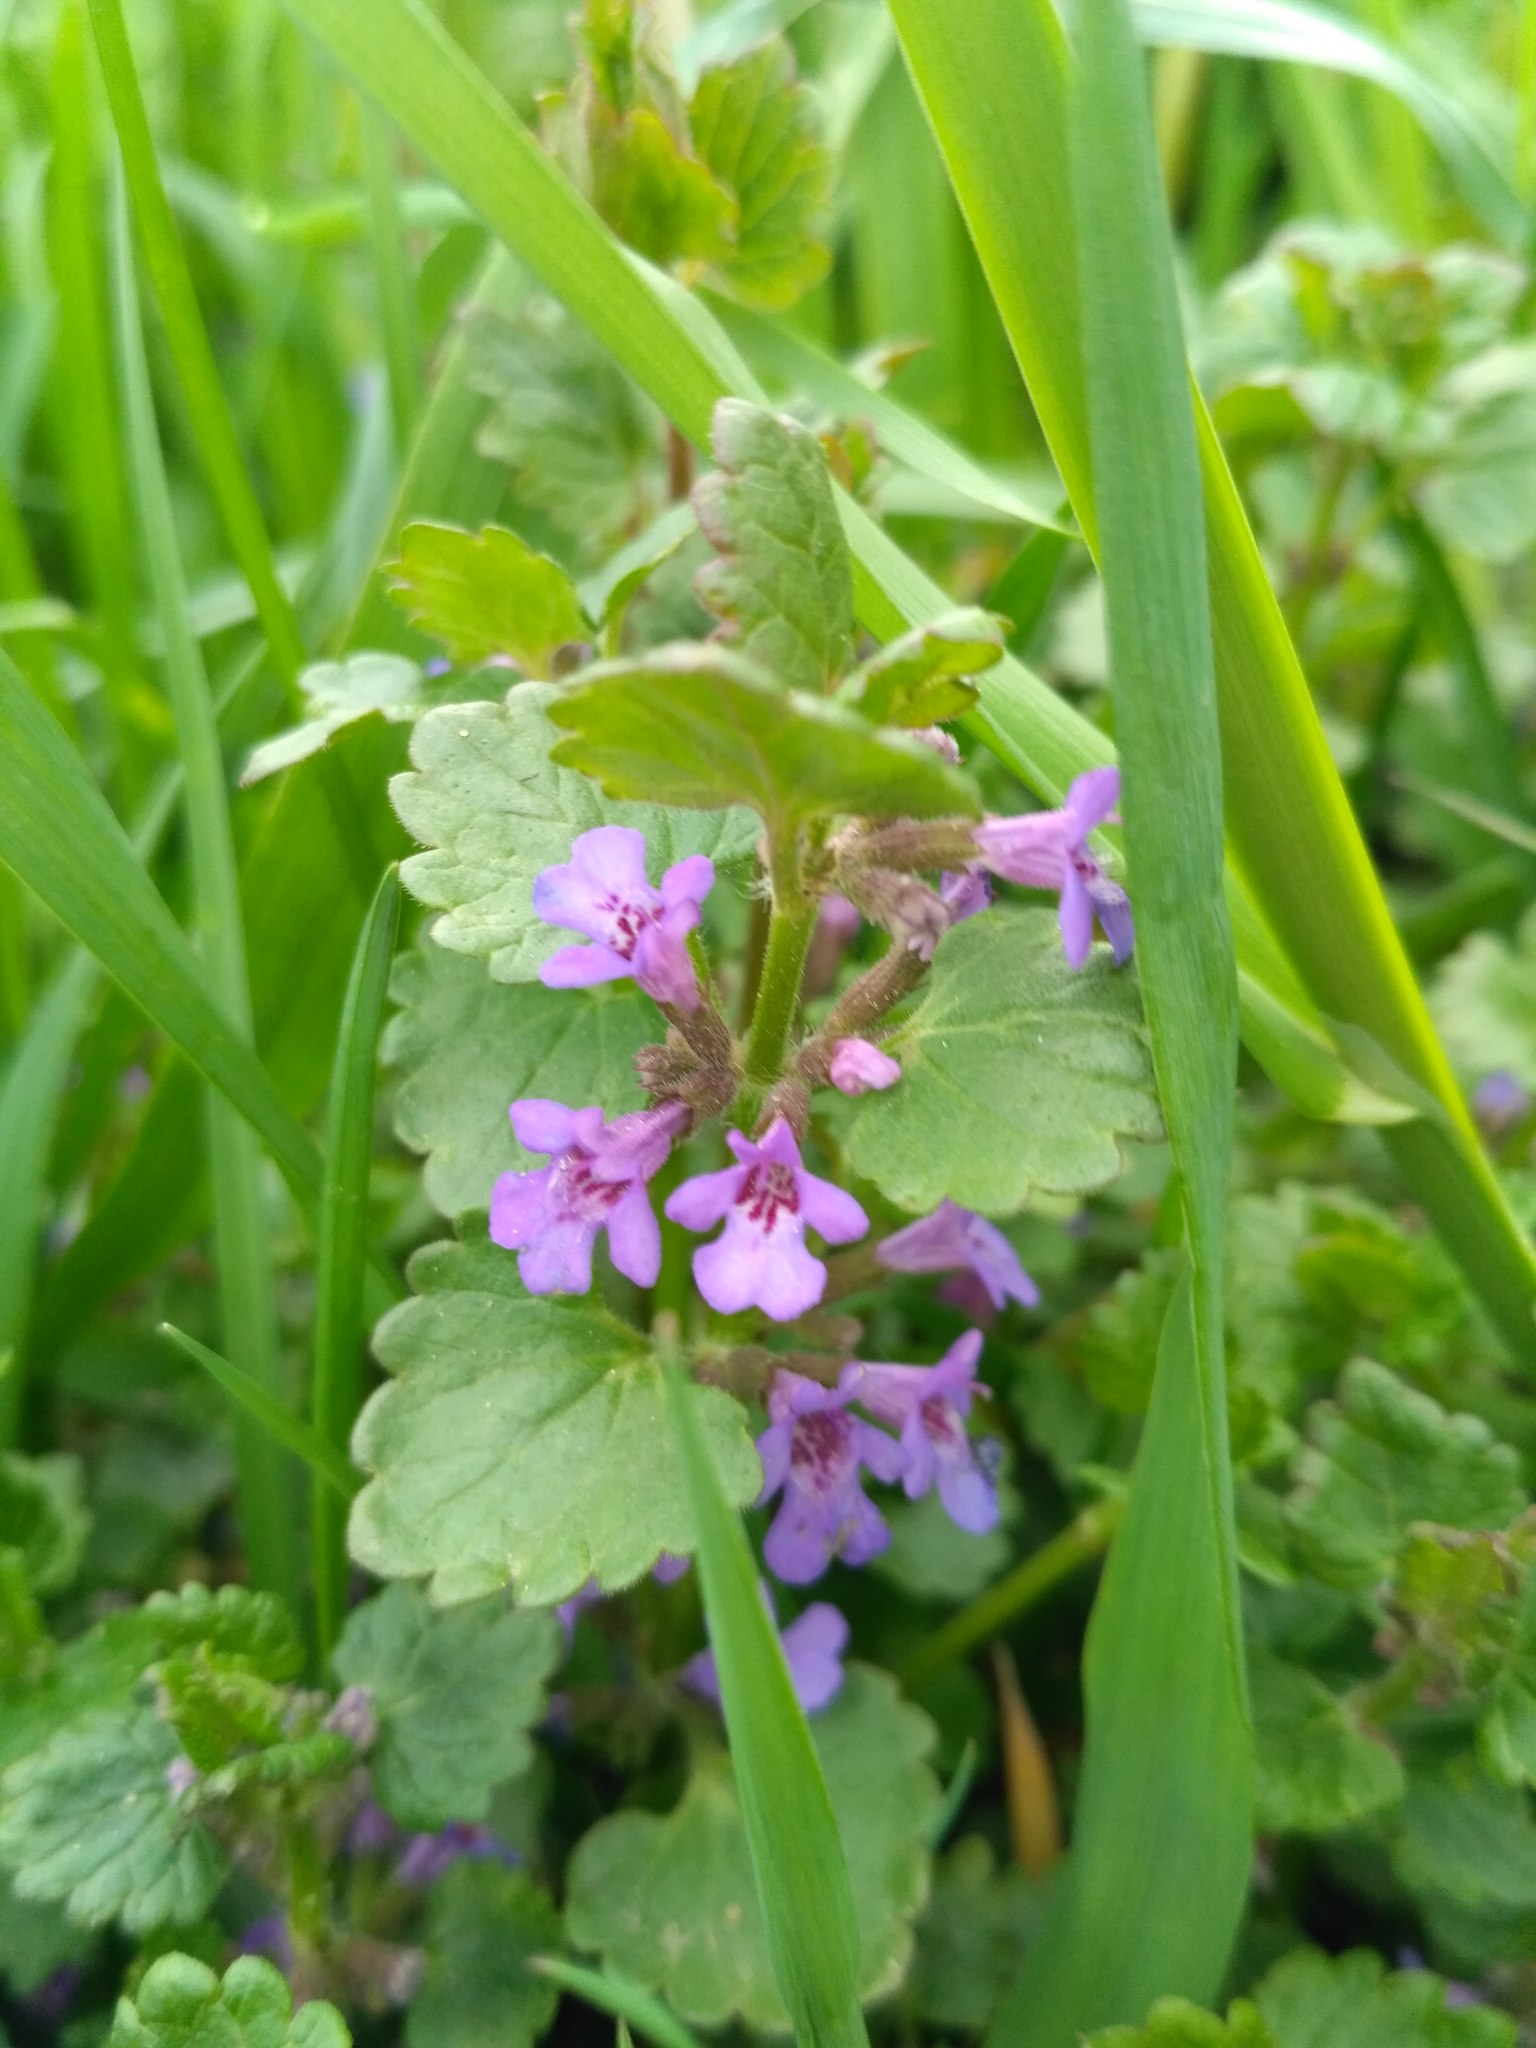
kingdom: Plantae
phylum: Tracheophyta
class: Magnoliopsida
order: Lamiales
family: Lamiaceae
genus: Glechoma
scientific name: Glechoma hederacea
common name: Ground ivy
